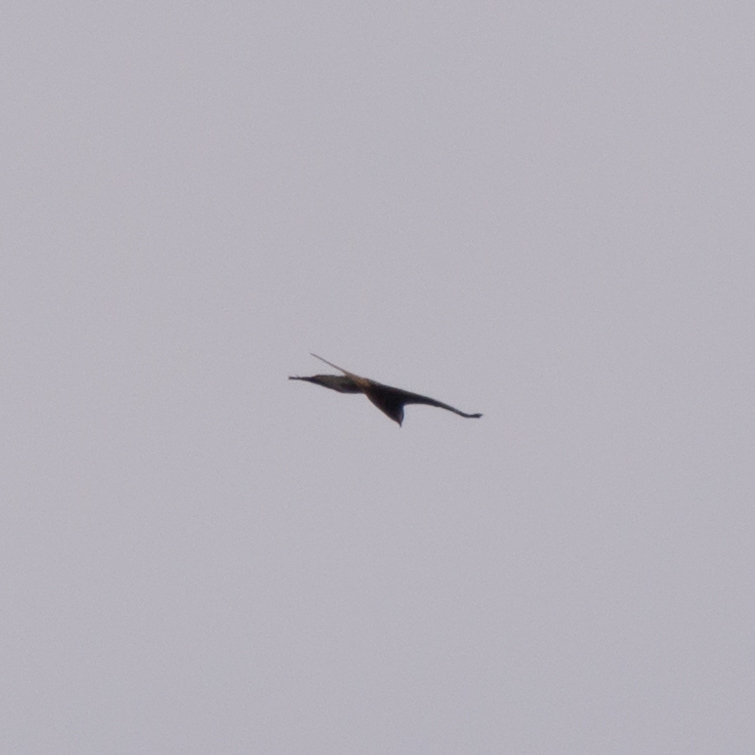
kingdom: Animalia
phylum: Chordata
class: Aves
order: Accipitriformes
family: Accipitridae
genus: Milvus
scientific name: Milvus milvus
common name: Red kite
